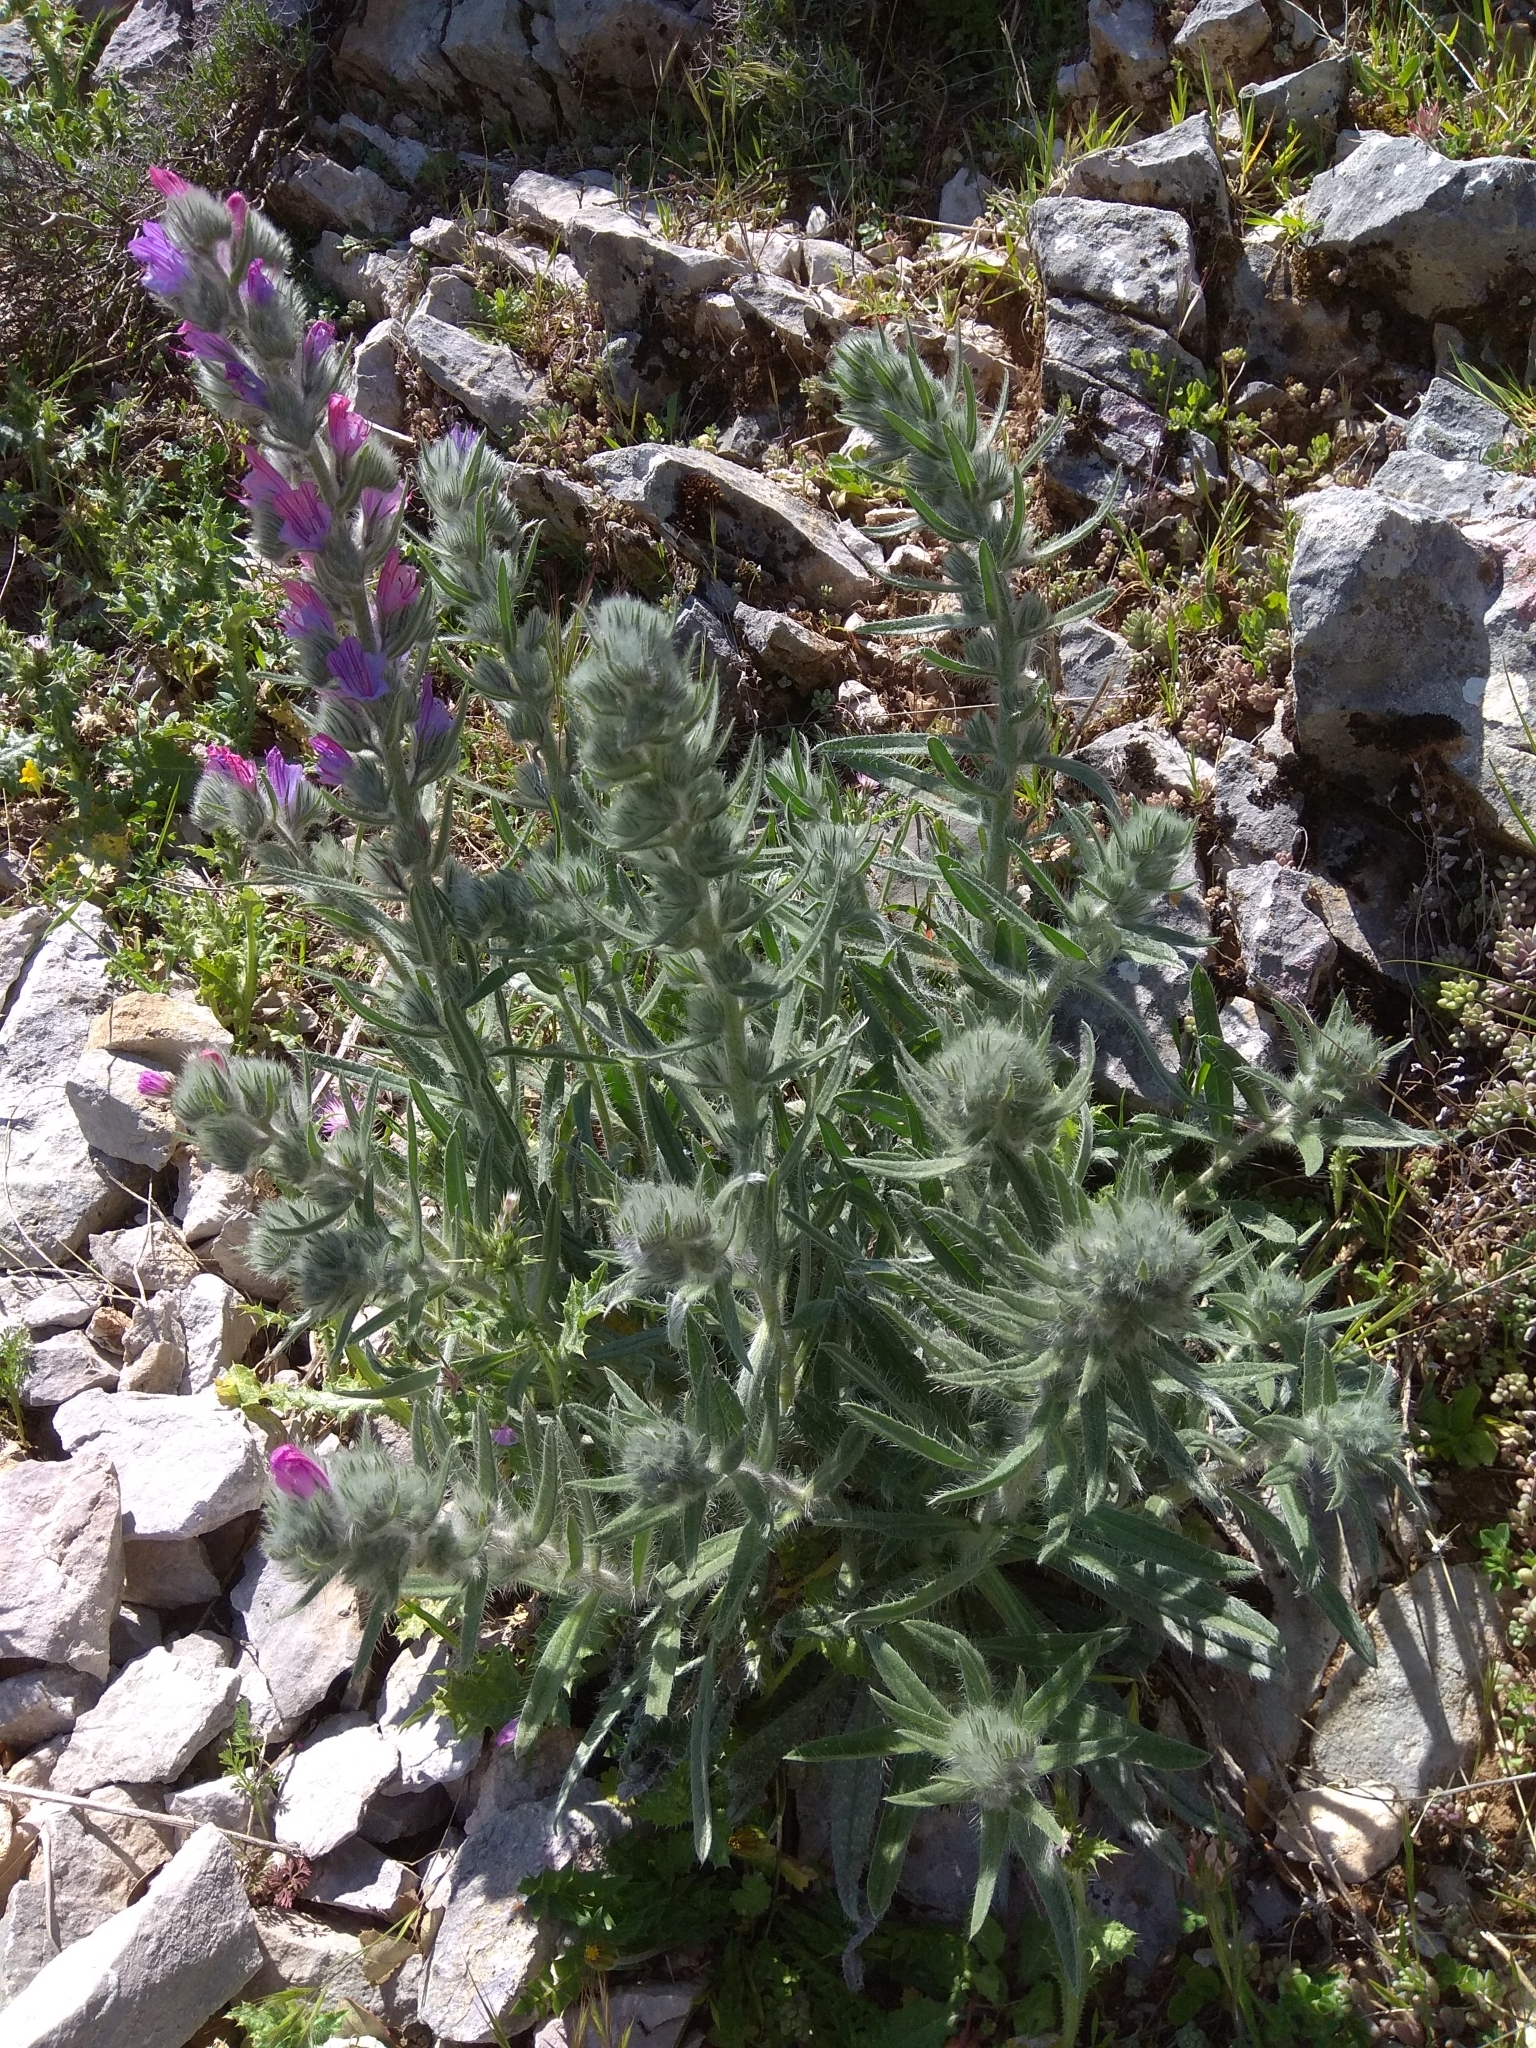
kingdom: Plantae
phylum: Tracheophyta
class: Magnoliopsida
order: Boraginales
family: Boraginaceae
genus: Echium
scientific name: Echium albicans
